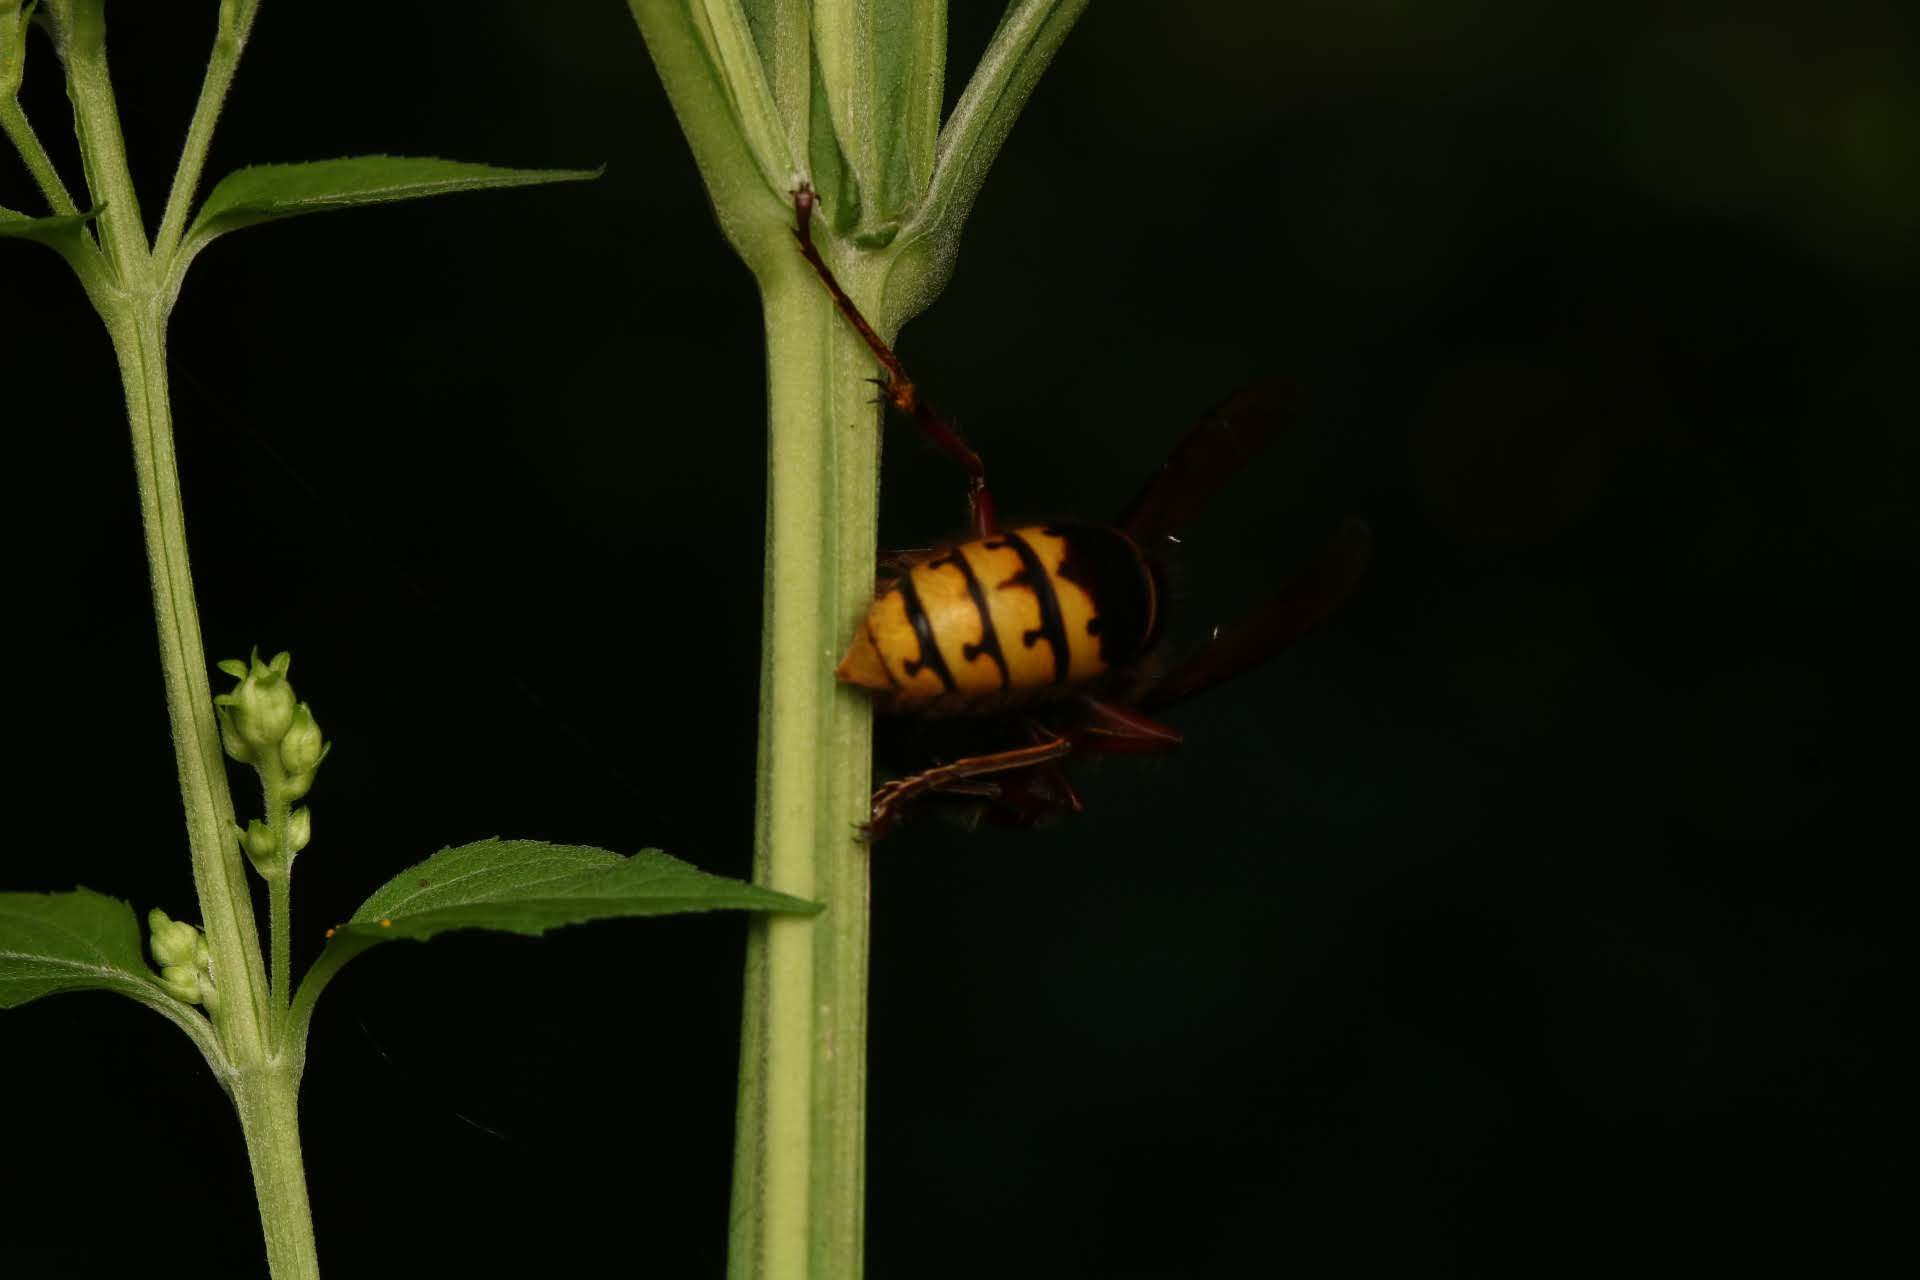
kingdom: Animalia
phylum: Arthropoda
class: Insecta
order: Hymenoptera
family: Vespidae
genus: Vespa
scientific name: Vespa crabro
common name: Hornet
